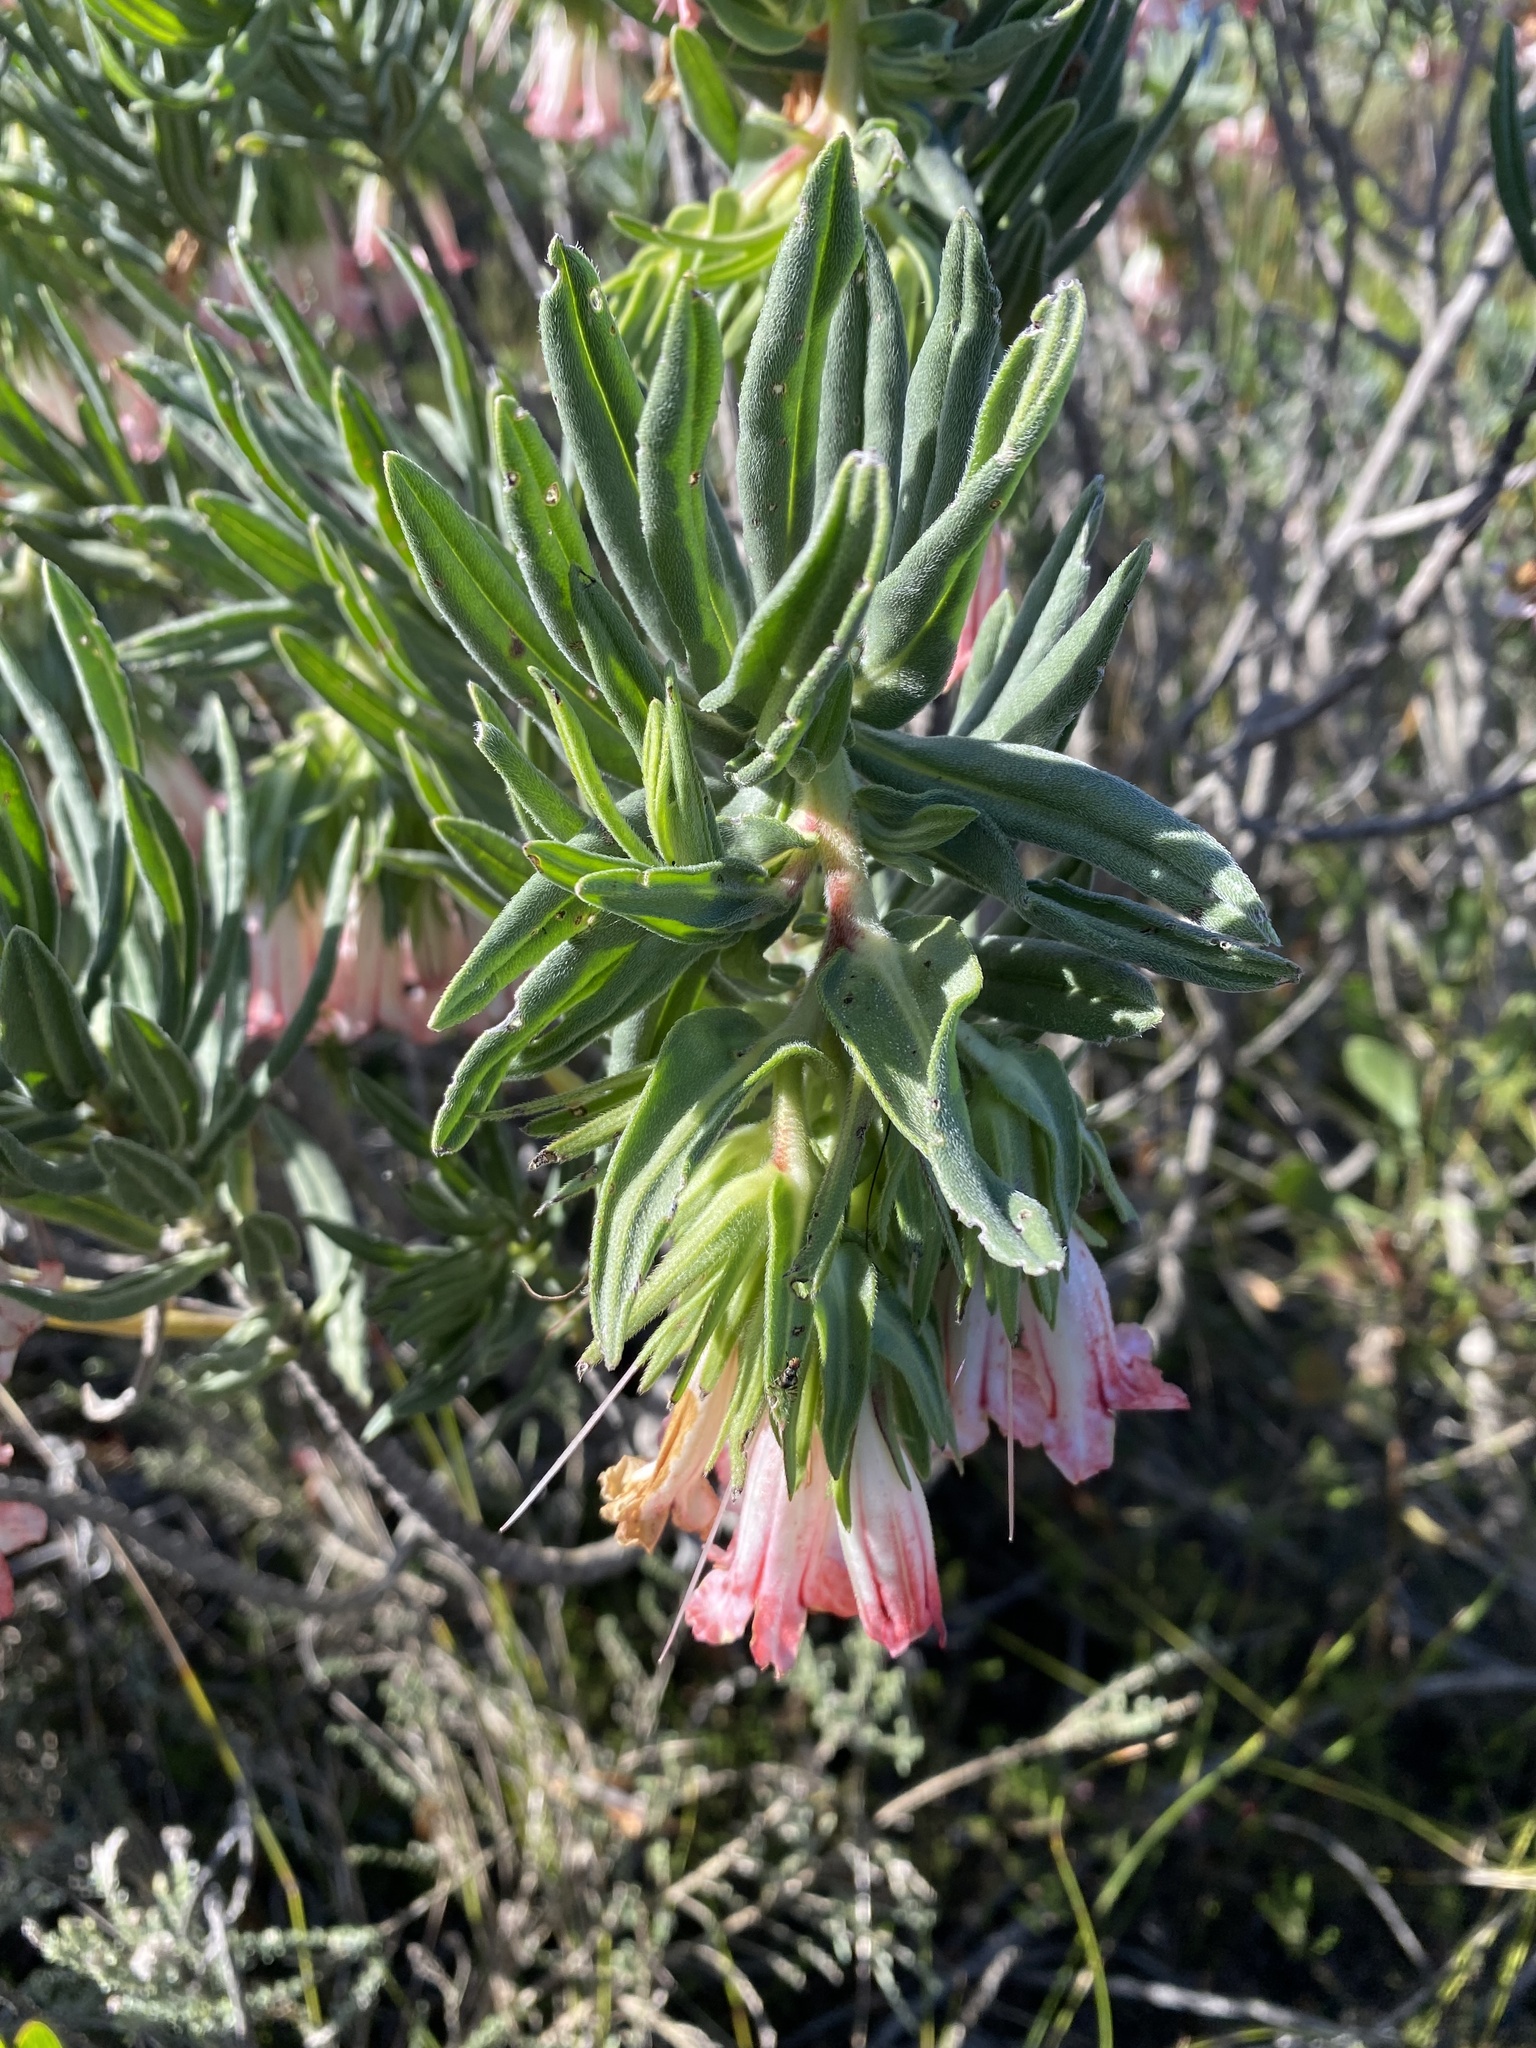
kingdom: Plantae
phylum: Tracheophyta
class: Magnoliopsida
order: Boraginales
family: Boraginaceae
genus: Lobostemon
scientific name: Lobostemon belliformis
